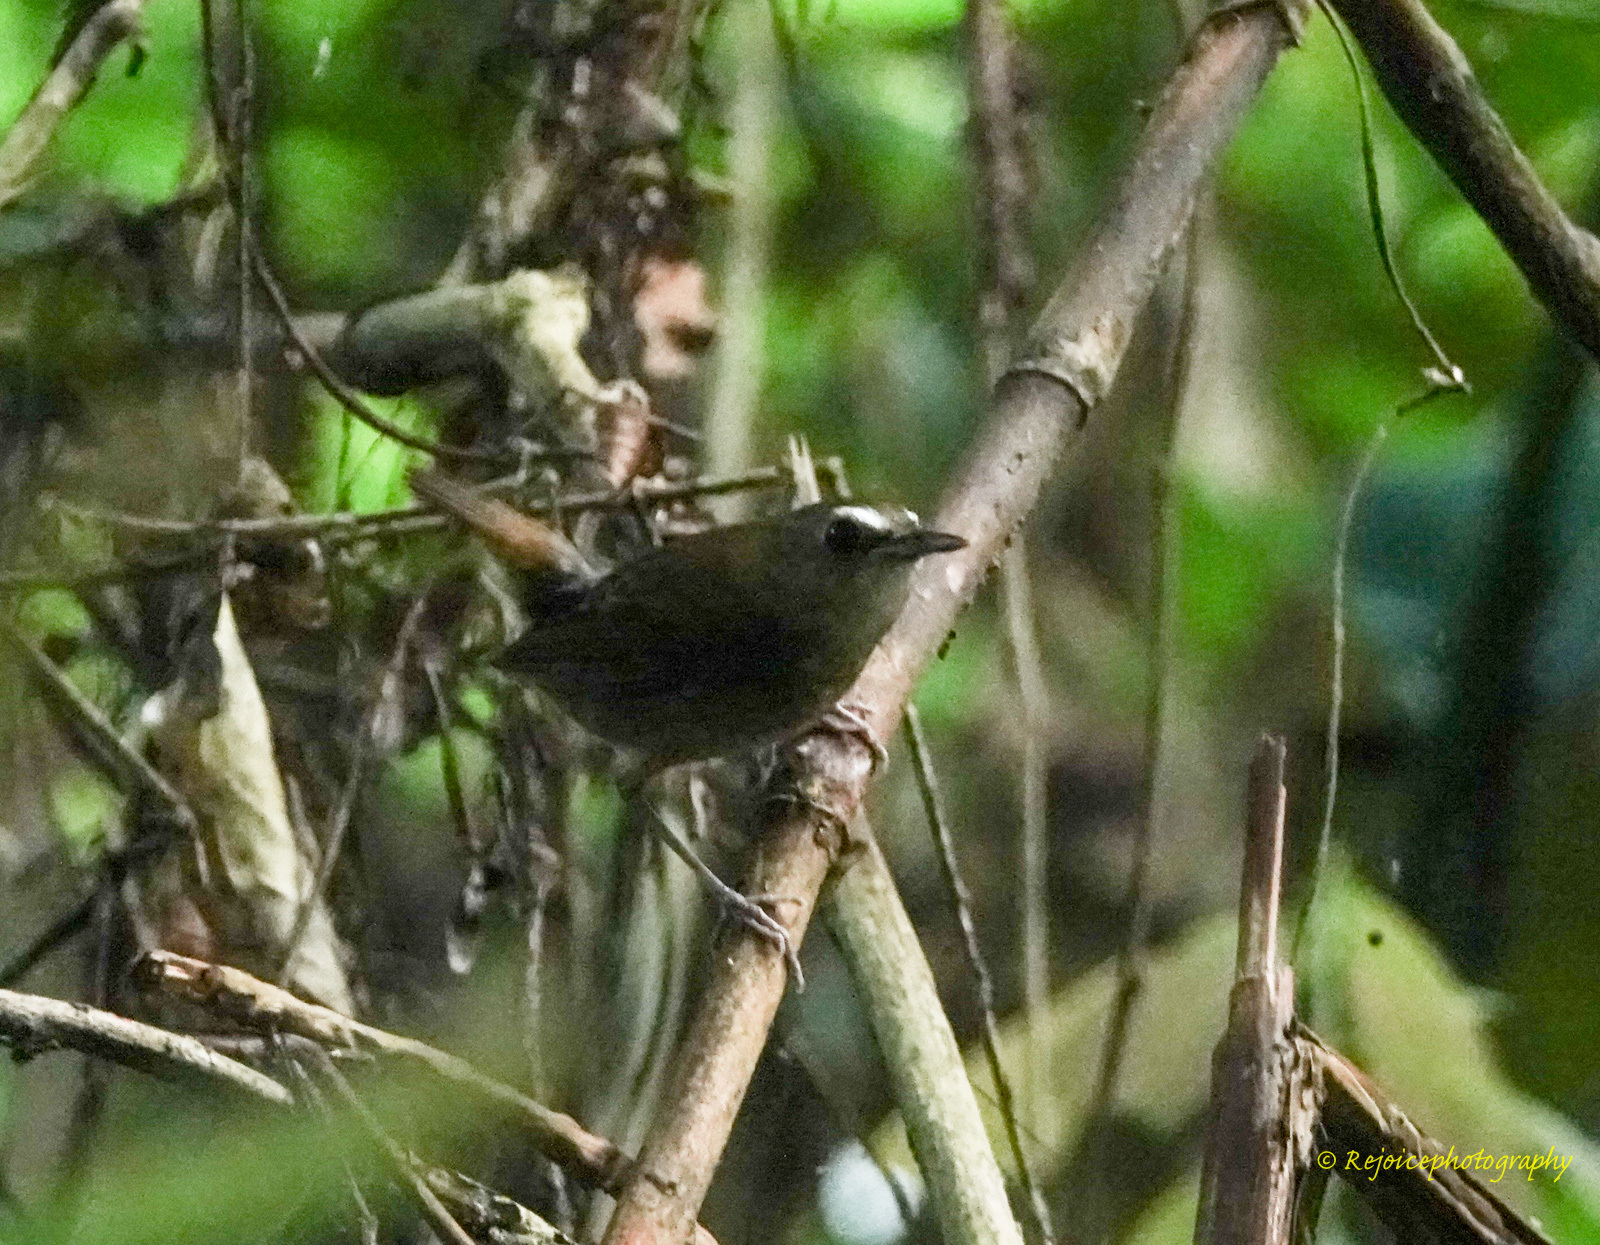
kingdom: Animalia
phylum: Chordata
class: Aves
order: Passeriformes
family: Muscicapidae
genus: Brachypteryx
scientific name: Brachypteryx leucophris
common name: Lesser shortwing
